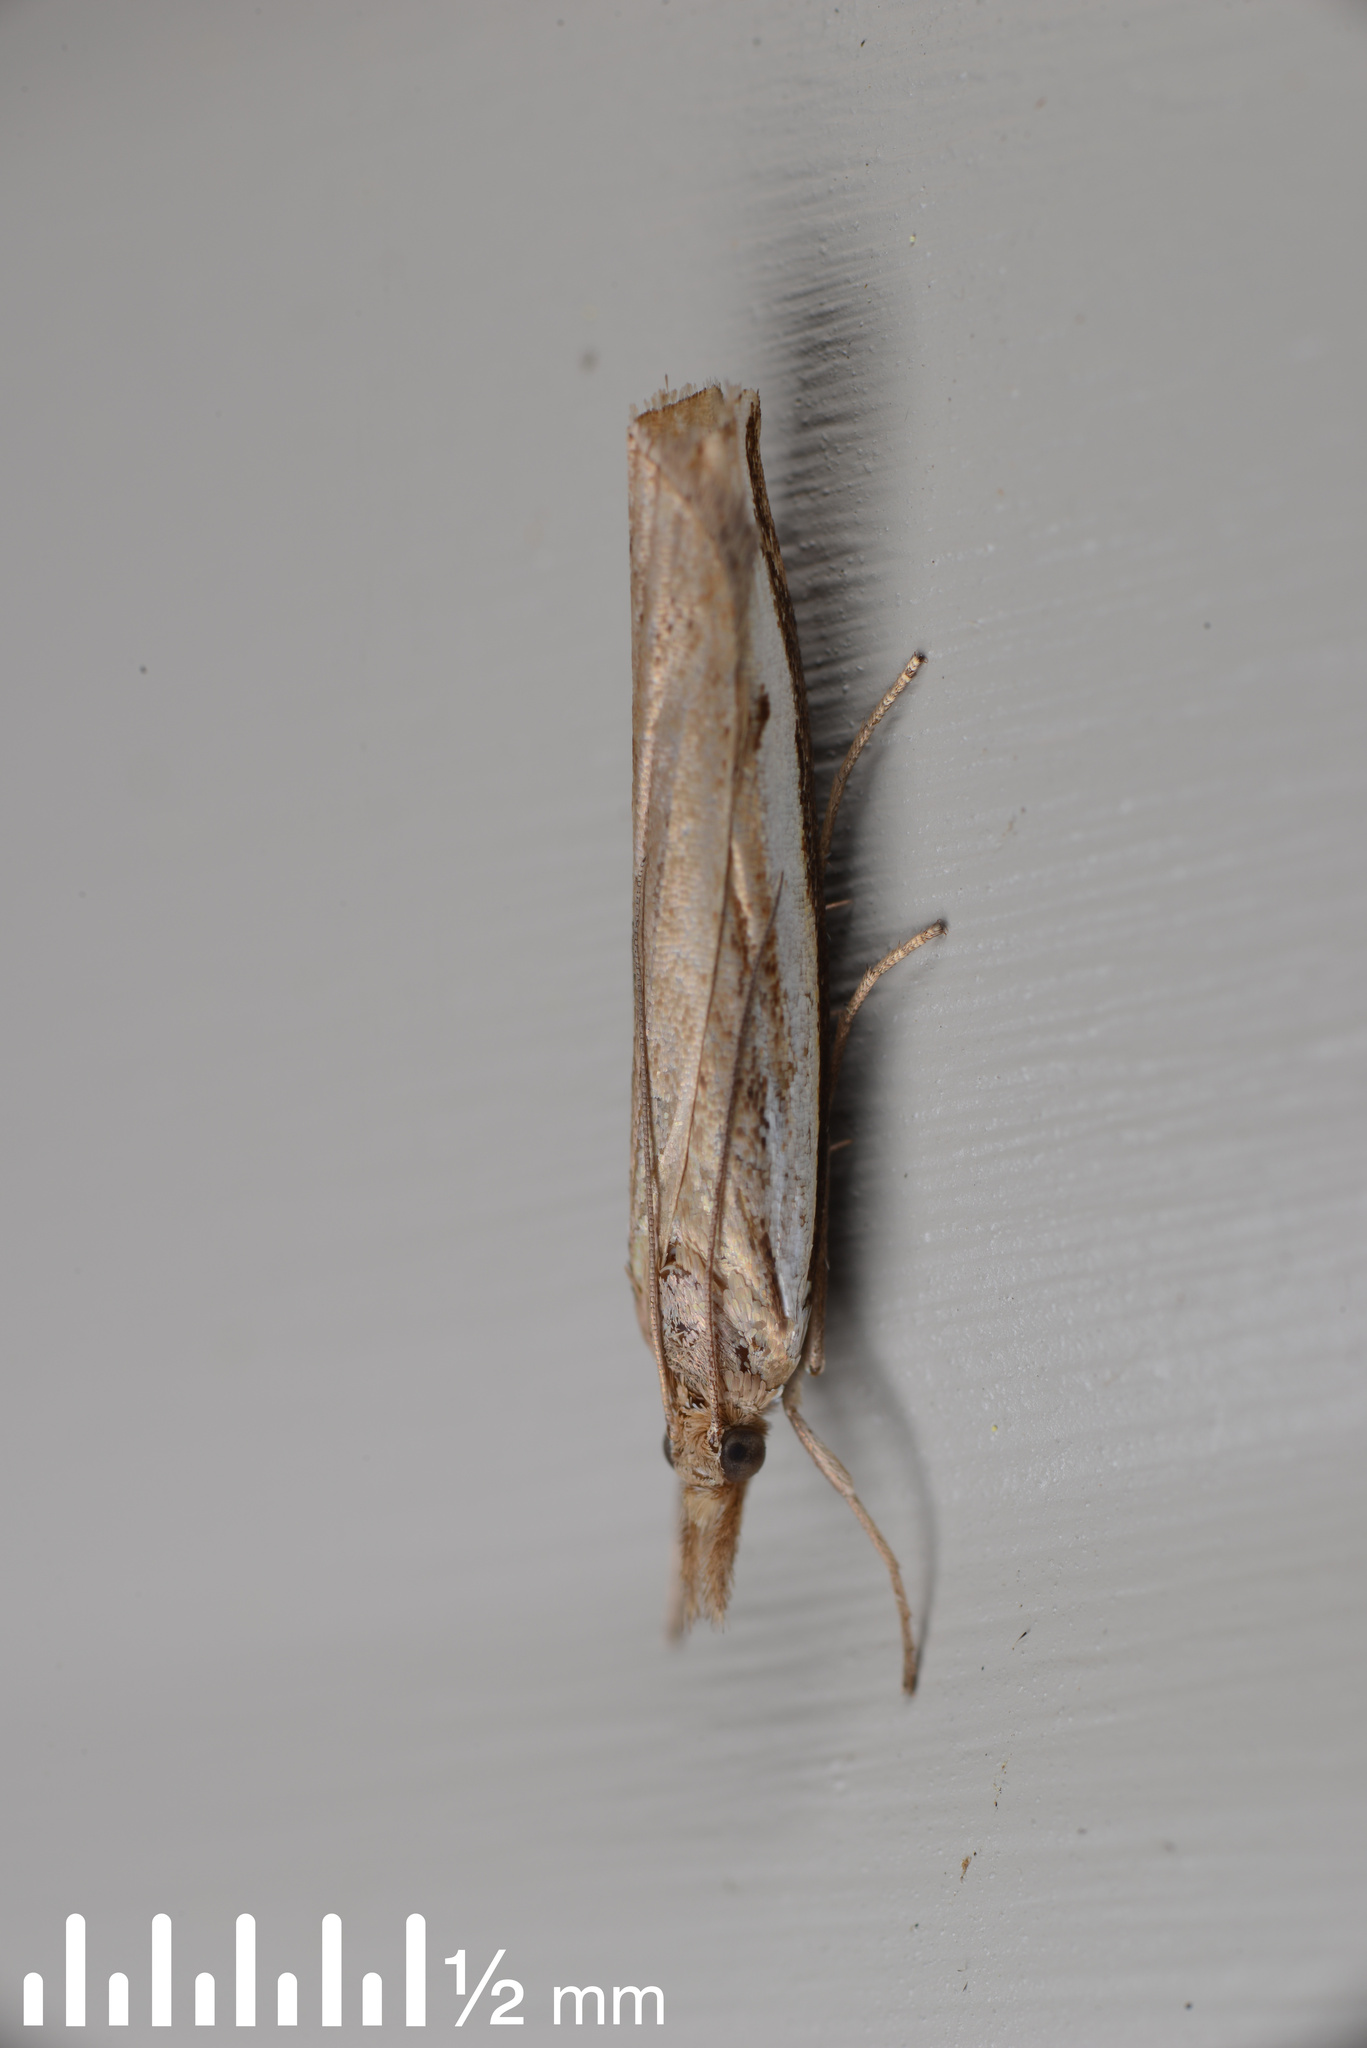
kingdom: Animalia
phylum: Arthropoda
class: Insecta
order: Lepidoptera
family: Crambidae
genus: Orocrambus
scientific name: Orocrambus flexuosellus
